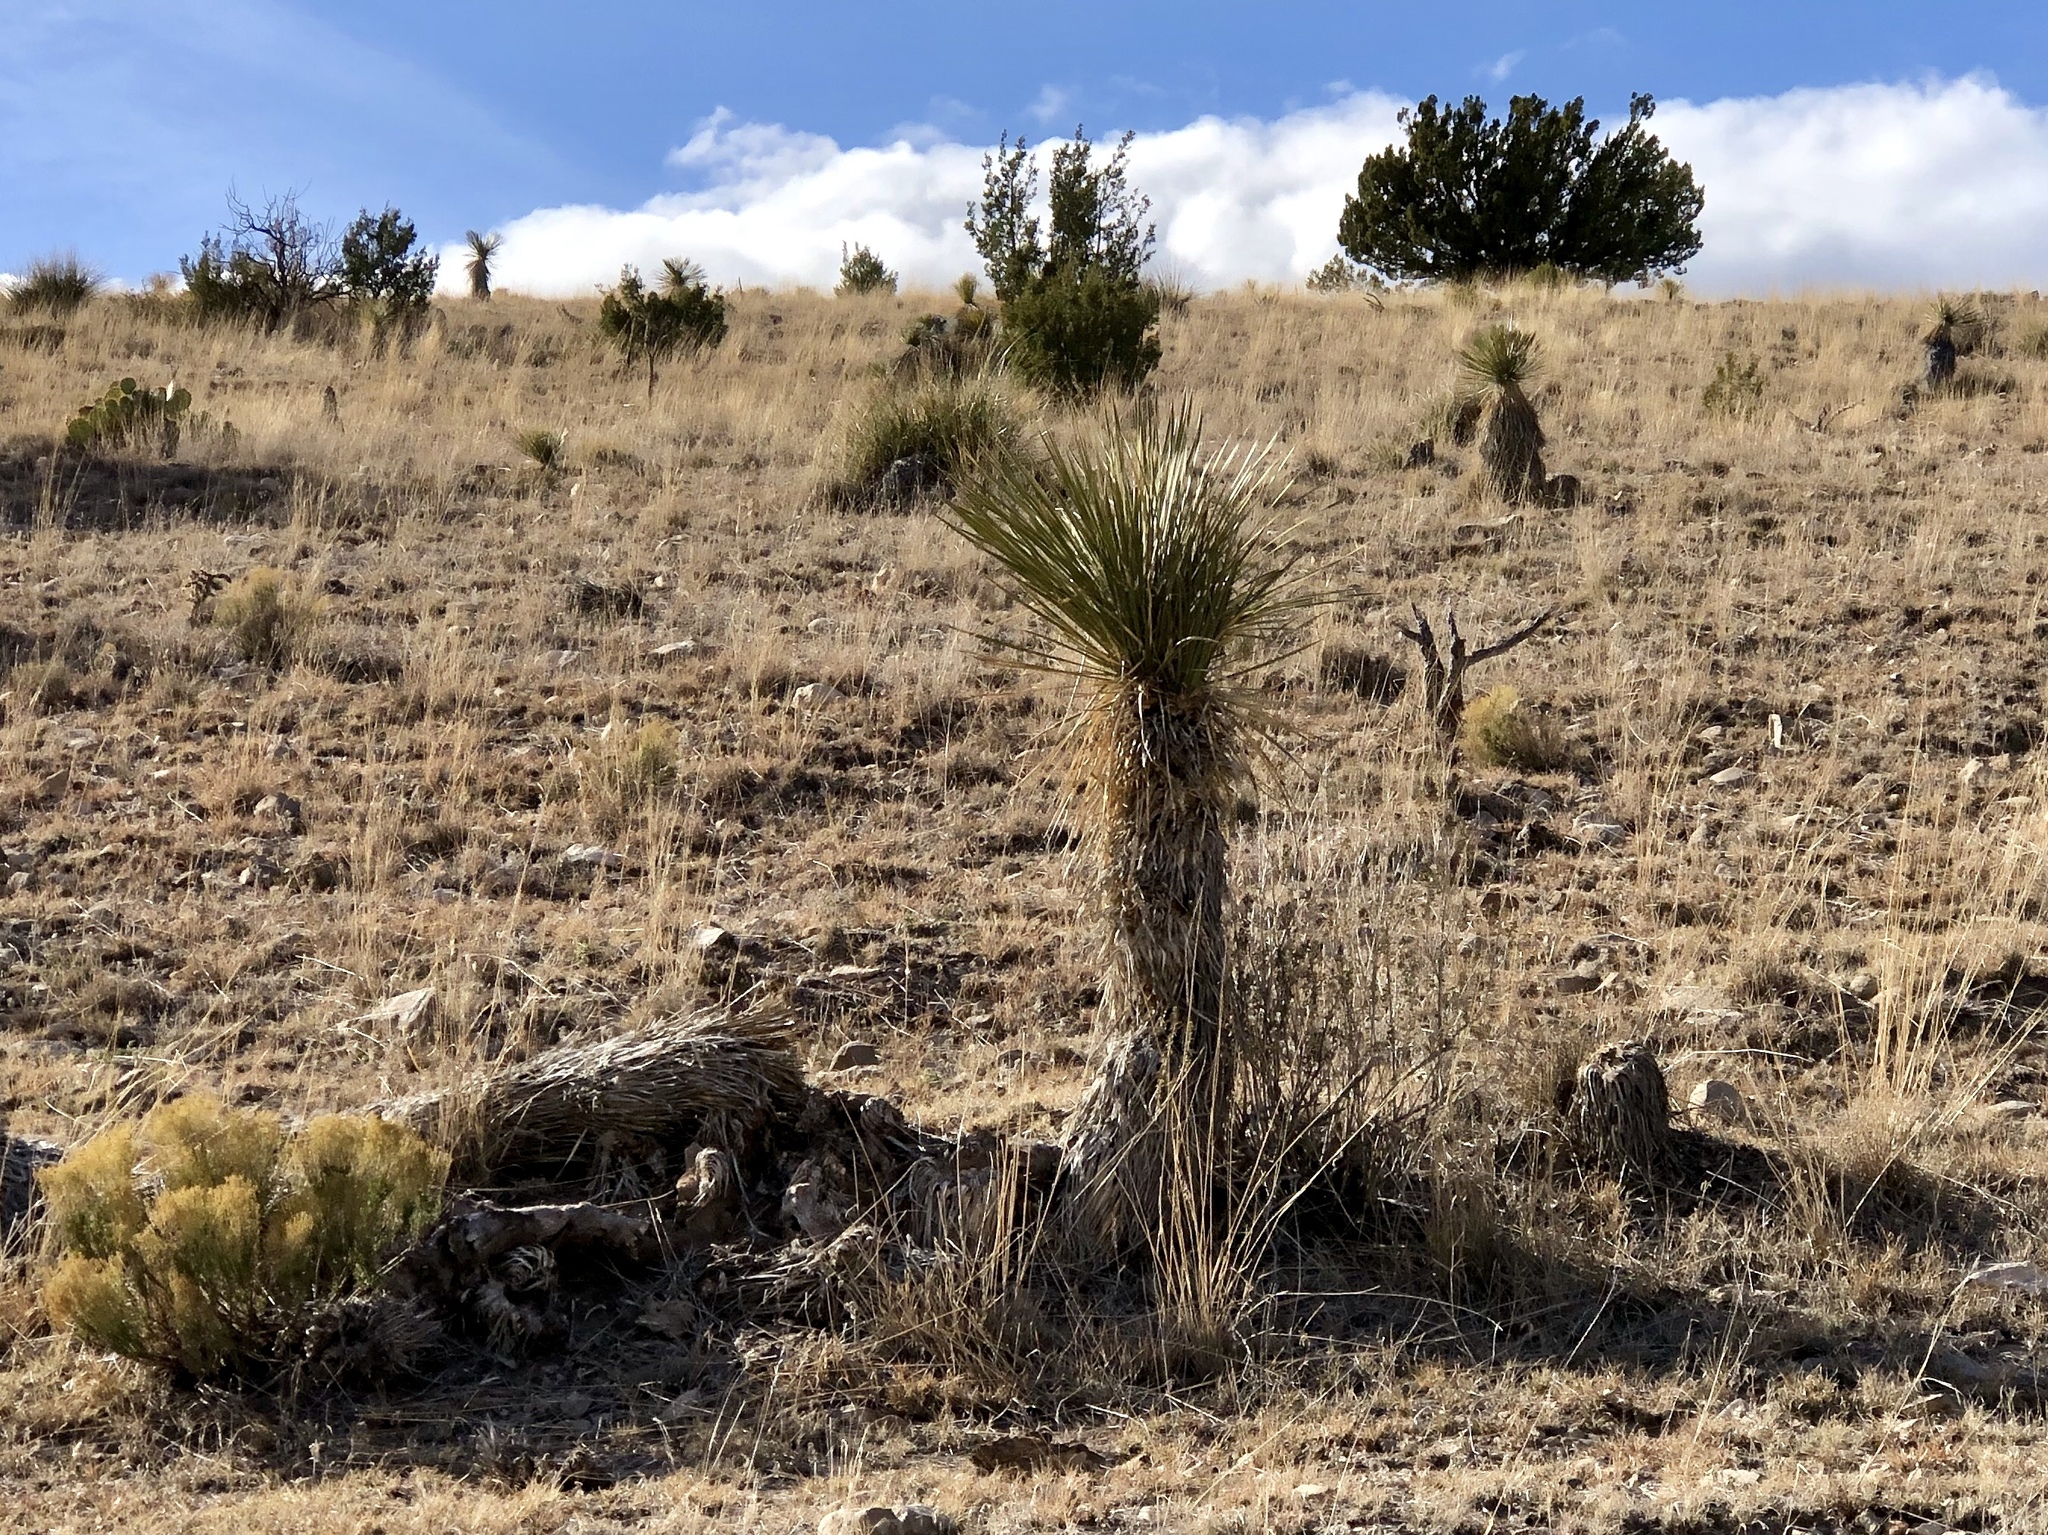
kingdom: Plantae
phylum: Tracheophyta
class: Liliopsida
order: Asparagales
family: Asparagaceae
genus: Yucca
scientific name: Yucca elata
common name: Palmella
